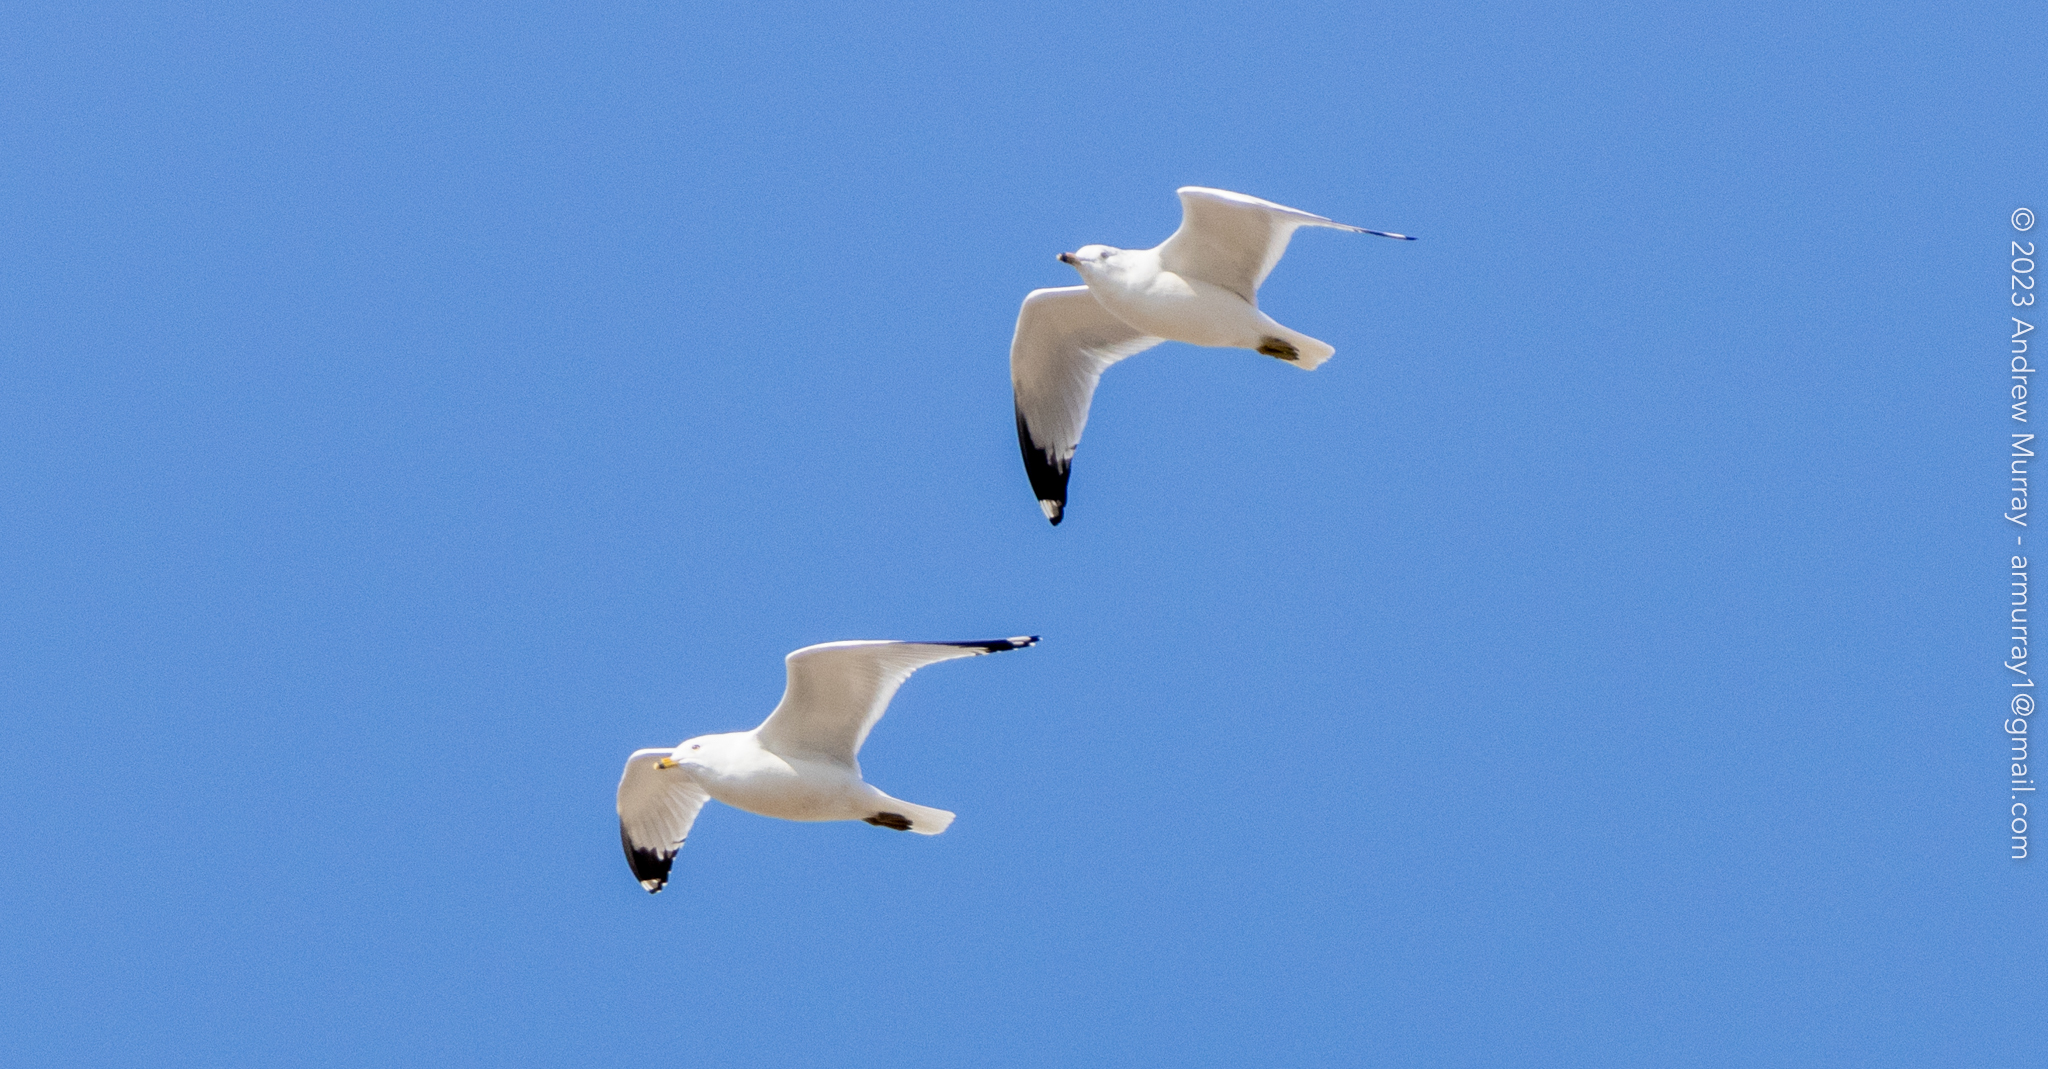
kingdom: Animalia
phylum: Chordata
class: Aves
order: Charadriiformes
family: Laridae
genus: Larus
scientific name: Larus delawarensis
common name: Ring-billed gull
